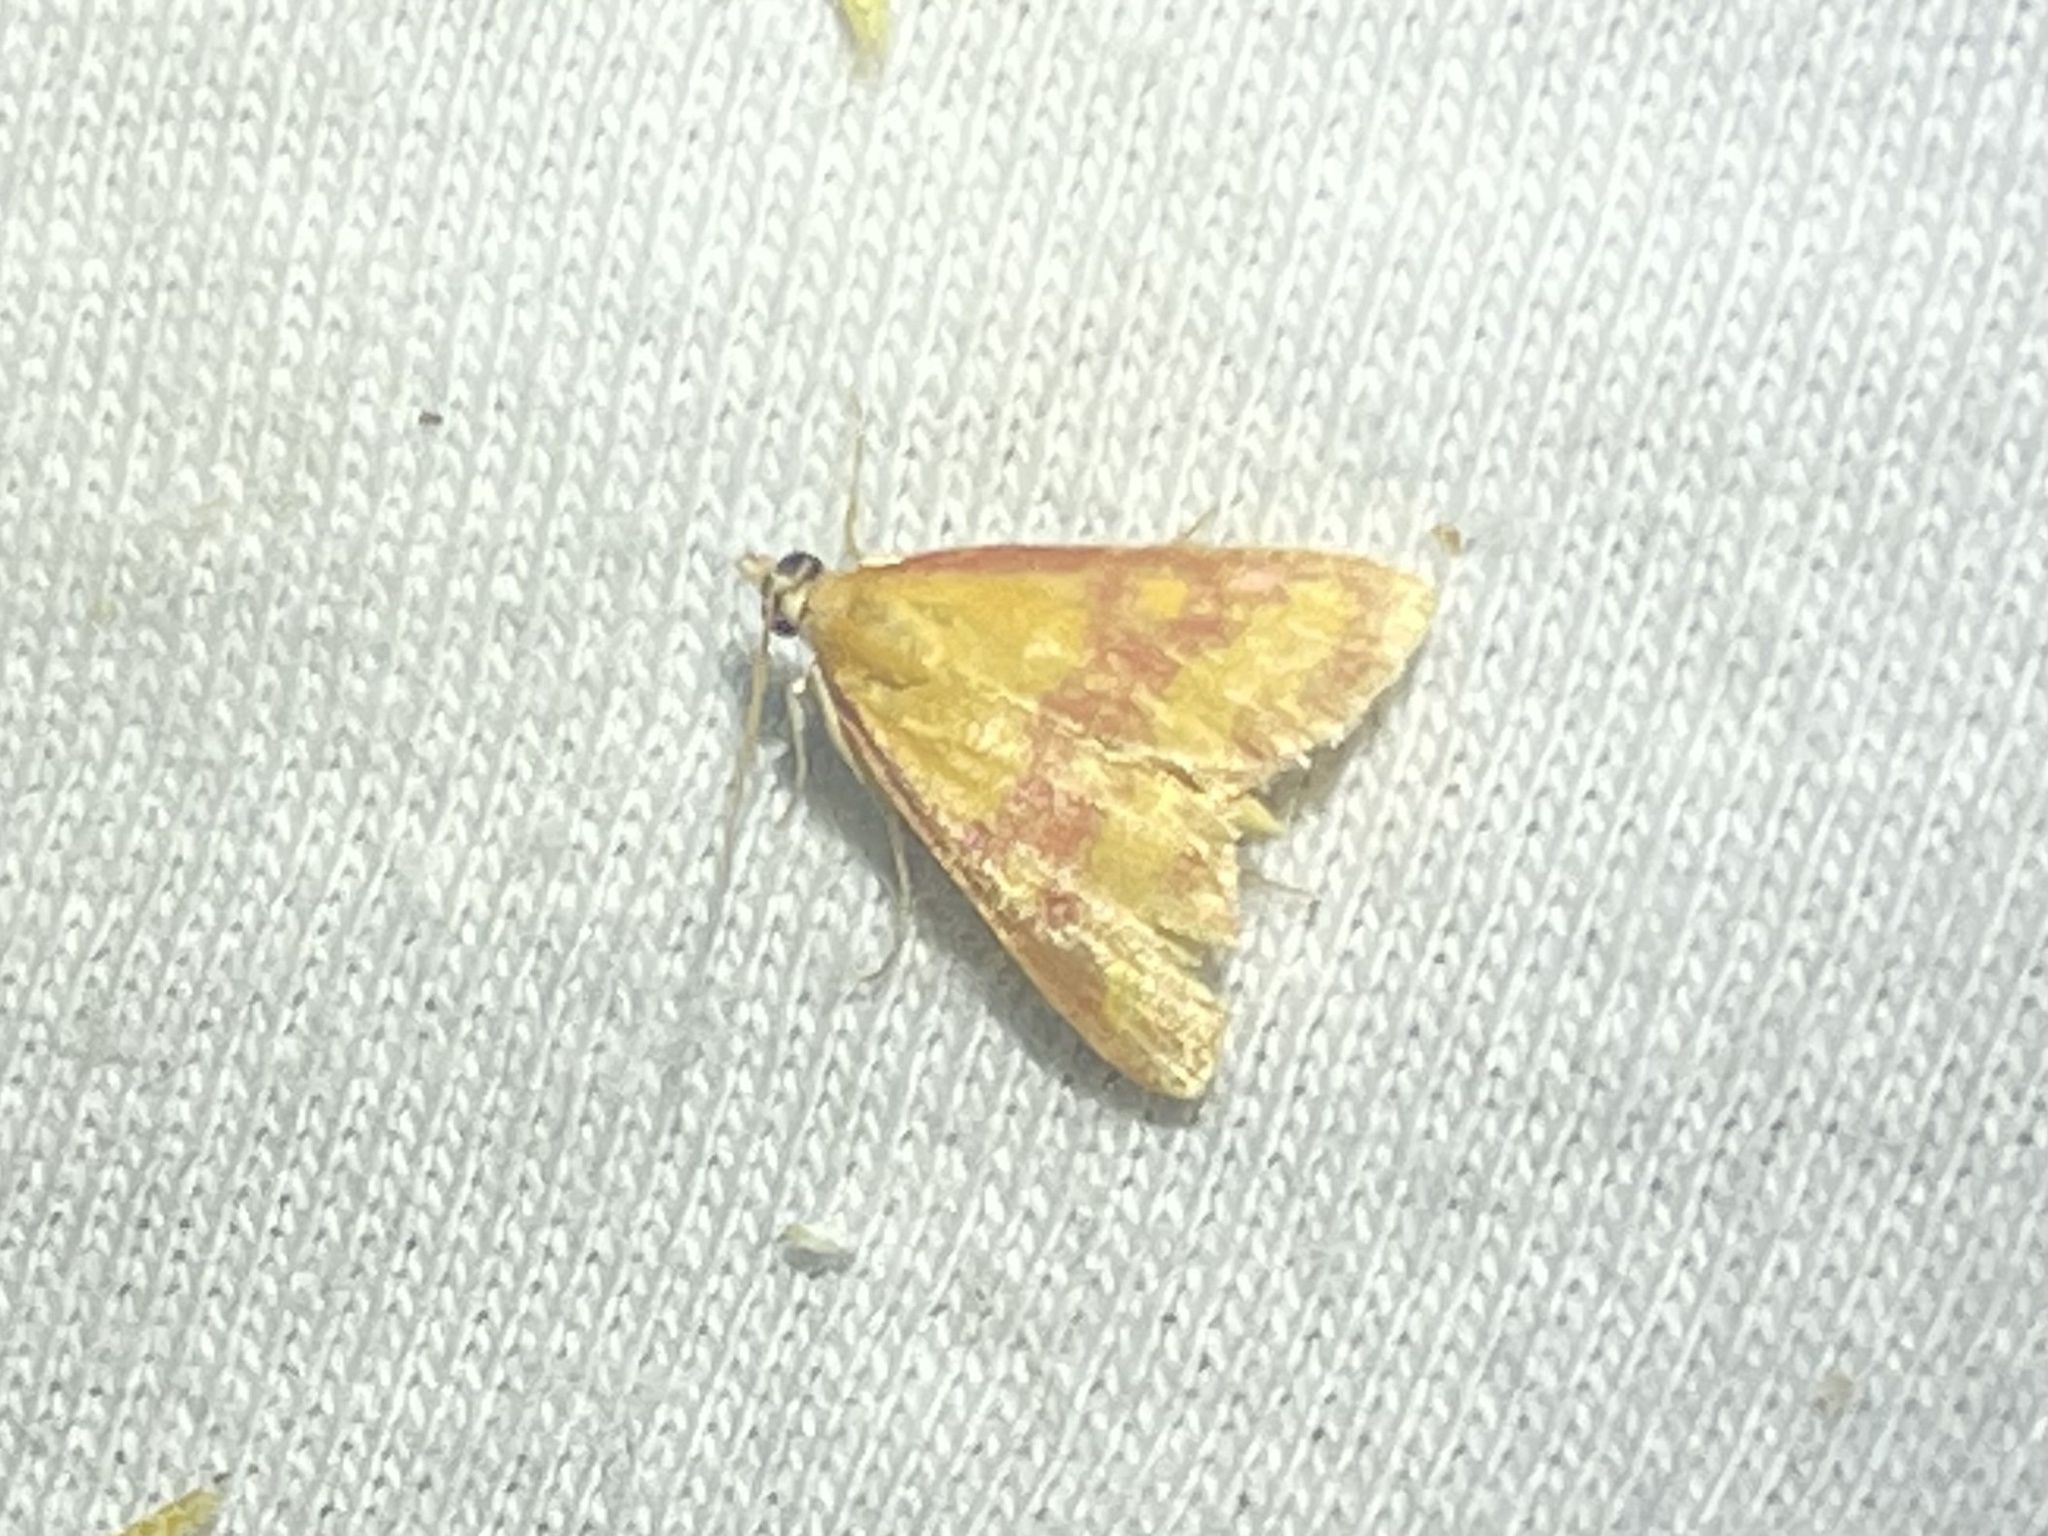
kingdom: Animalia
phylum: Arthropoda
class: Insecta
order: Lepidoptera
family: Crambidae
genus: Pyrausta
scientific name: Pyrausta laticlavia
